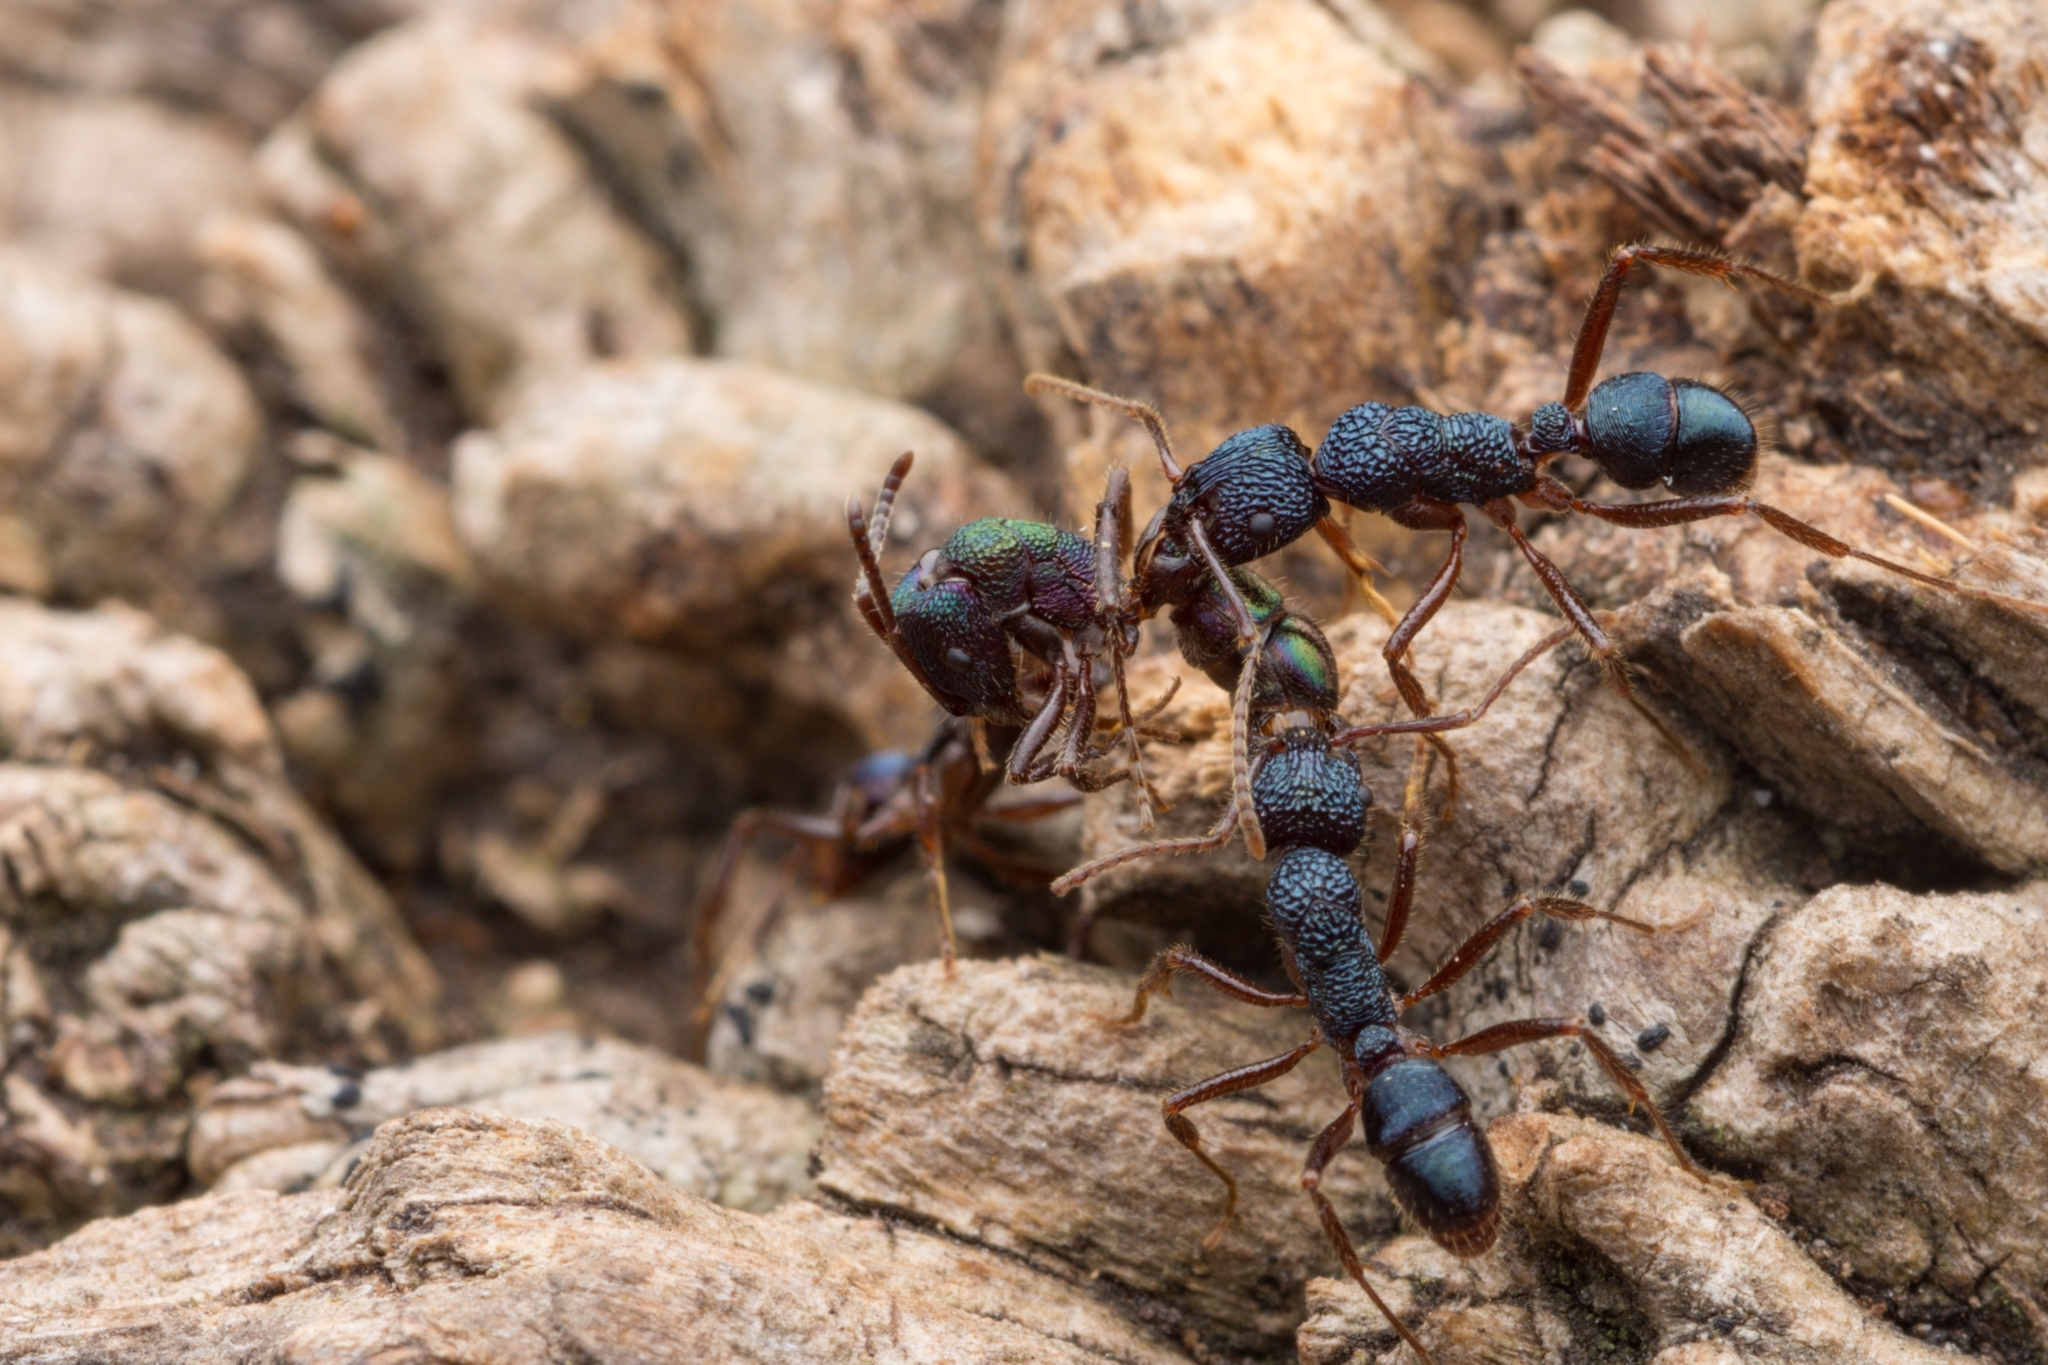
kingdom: Animalia
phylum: Arthropoda
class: Insecta
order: Hymenoptera
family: Formicidae
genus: Rhytidoponera
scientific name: Rhytidoponera confusa
